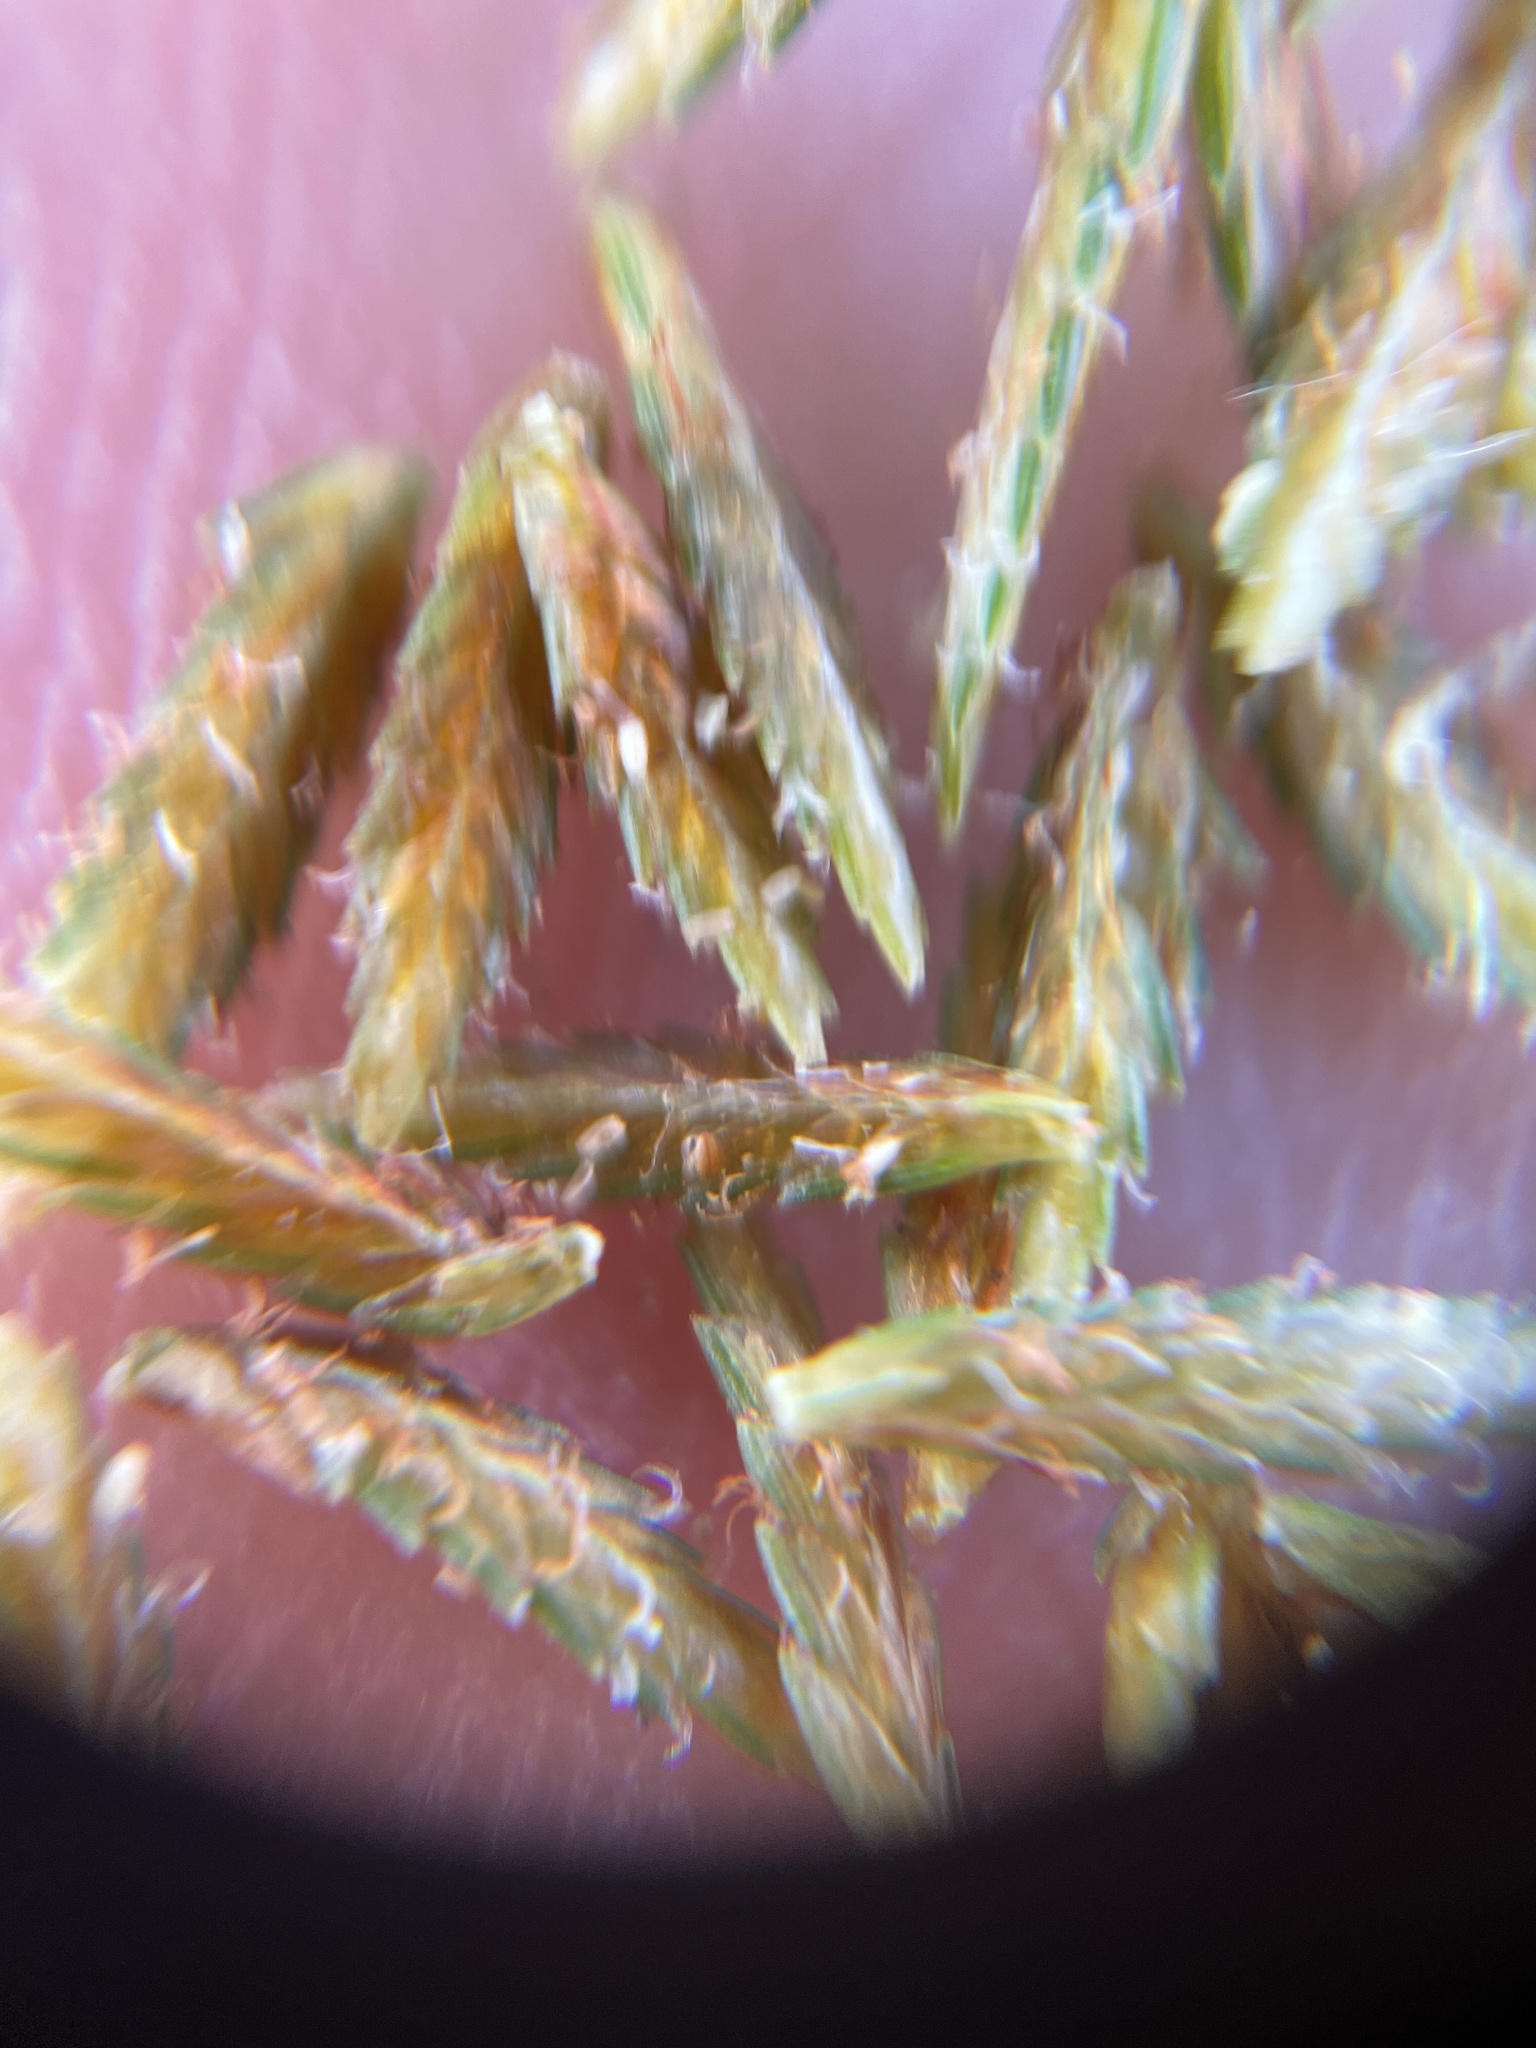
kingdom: Plantae
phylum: Tracheophyta
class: Liliopsida
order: Poales
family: Cyperaceae
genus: Cyperus
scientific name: Cyperus erythrorhizos
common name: Red-root flat sedge
